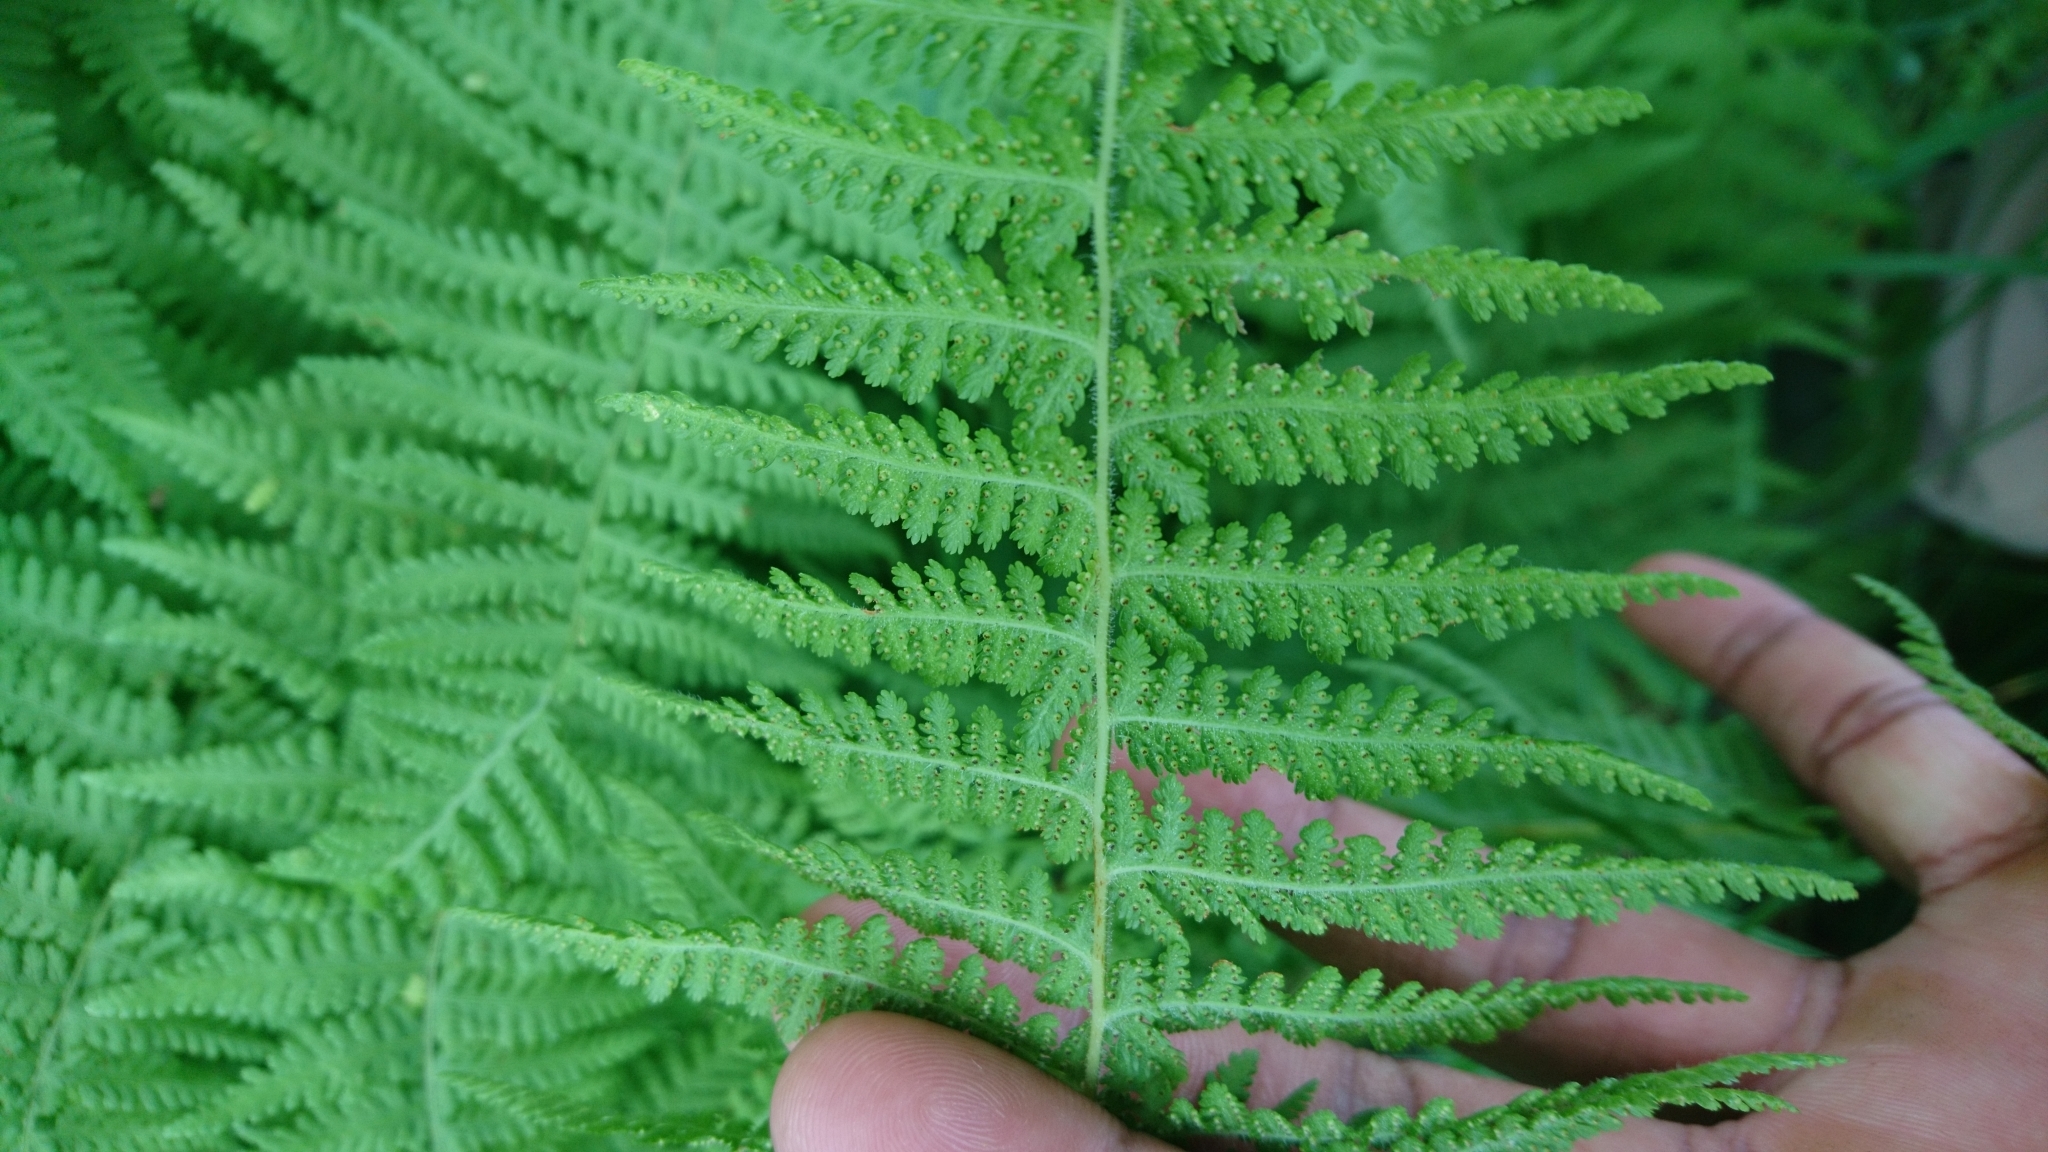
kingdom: Plantae
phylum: Tracheophyta
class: Polypodiopsida
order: Polypodiales
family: Dennstaedtiaceae
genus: Sitobolium
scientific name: Sitobolium punctilobum
